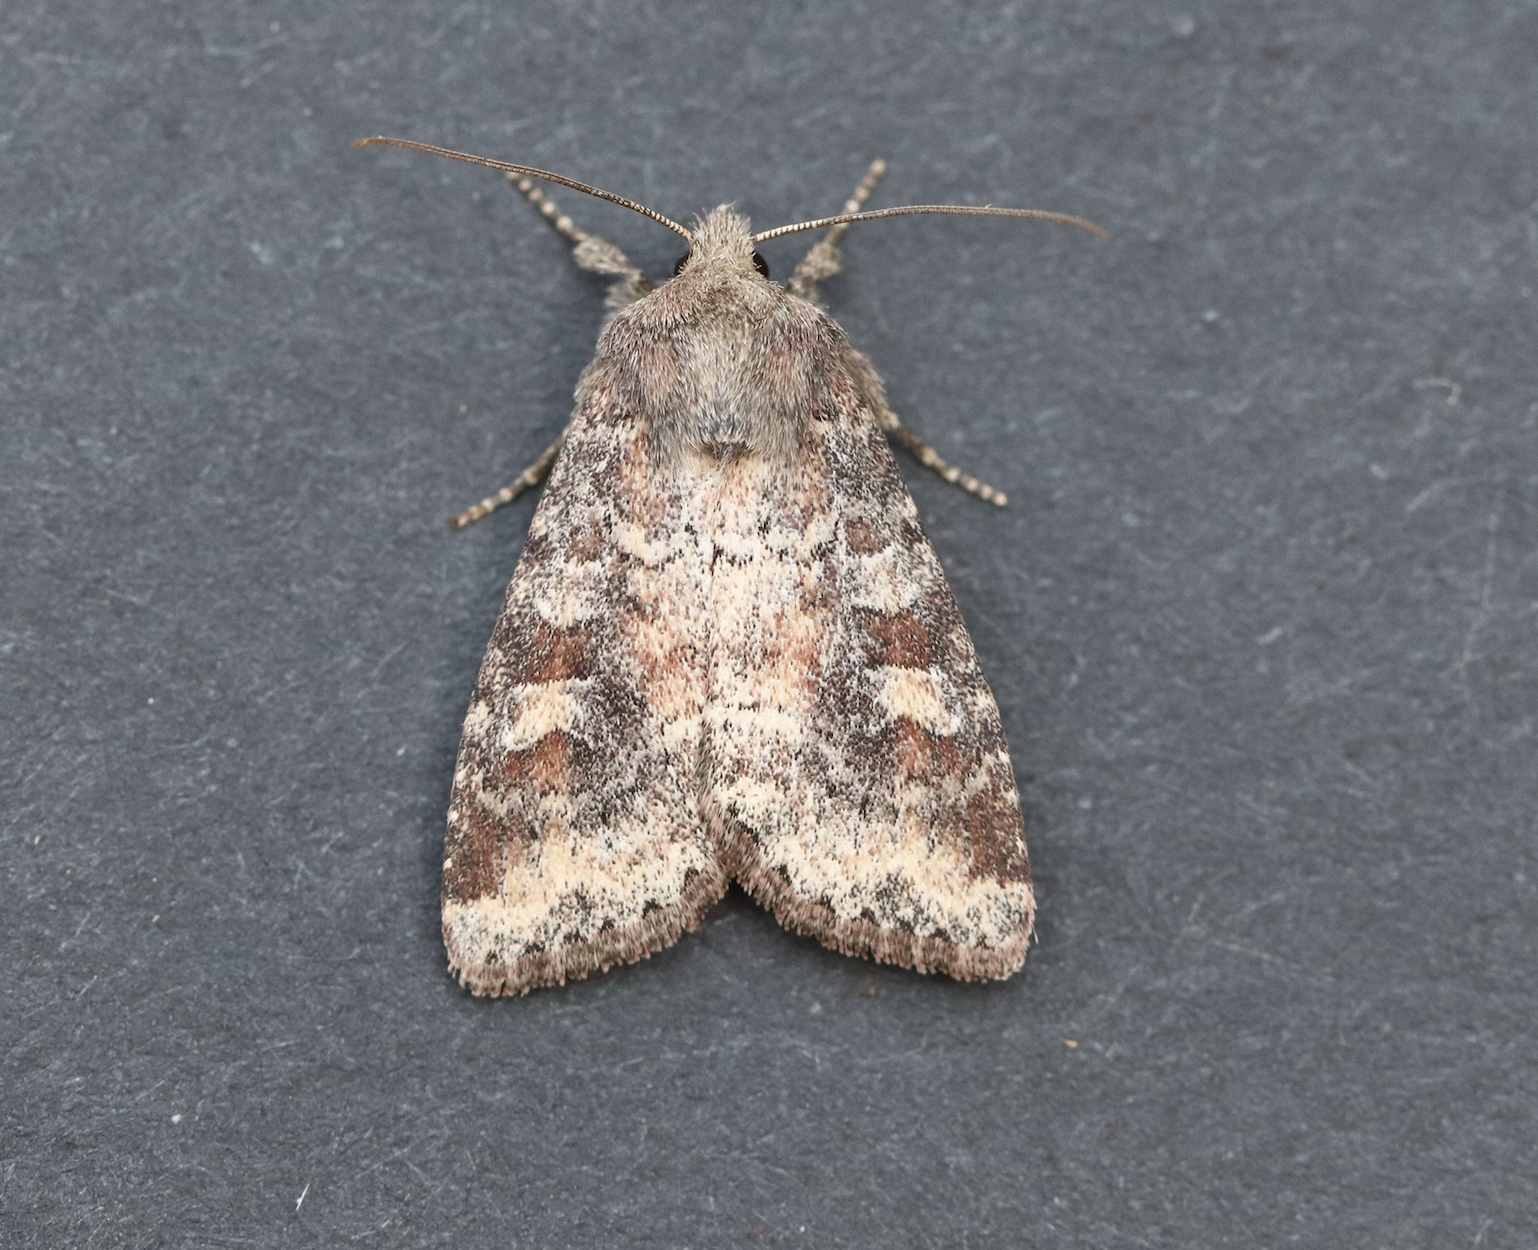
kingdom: Animalia
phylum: Arthropoda
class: Insecta
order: Lepidoptera
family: Noctuidae
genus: Parastichtis
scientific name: Parastichtis suspecta
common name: Suspected
